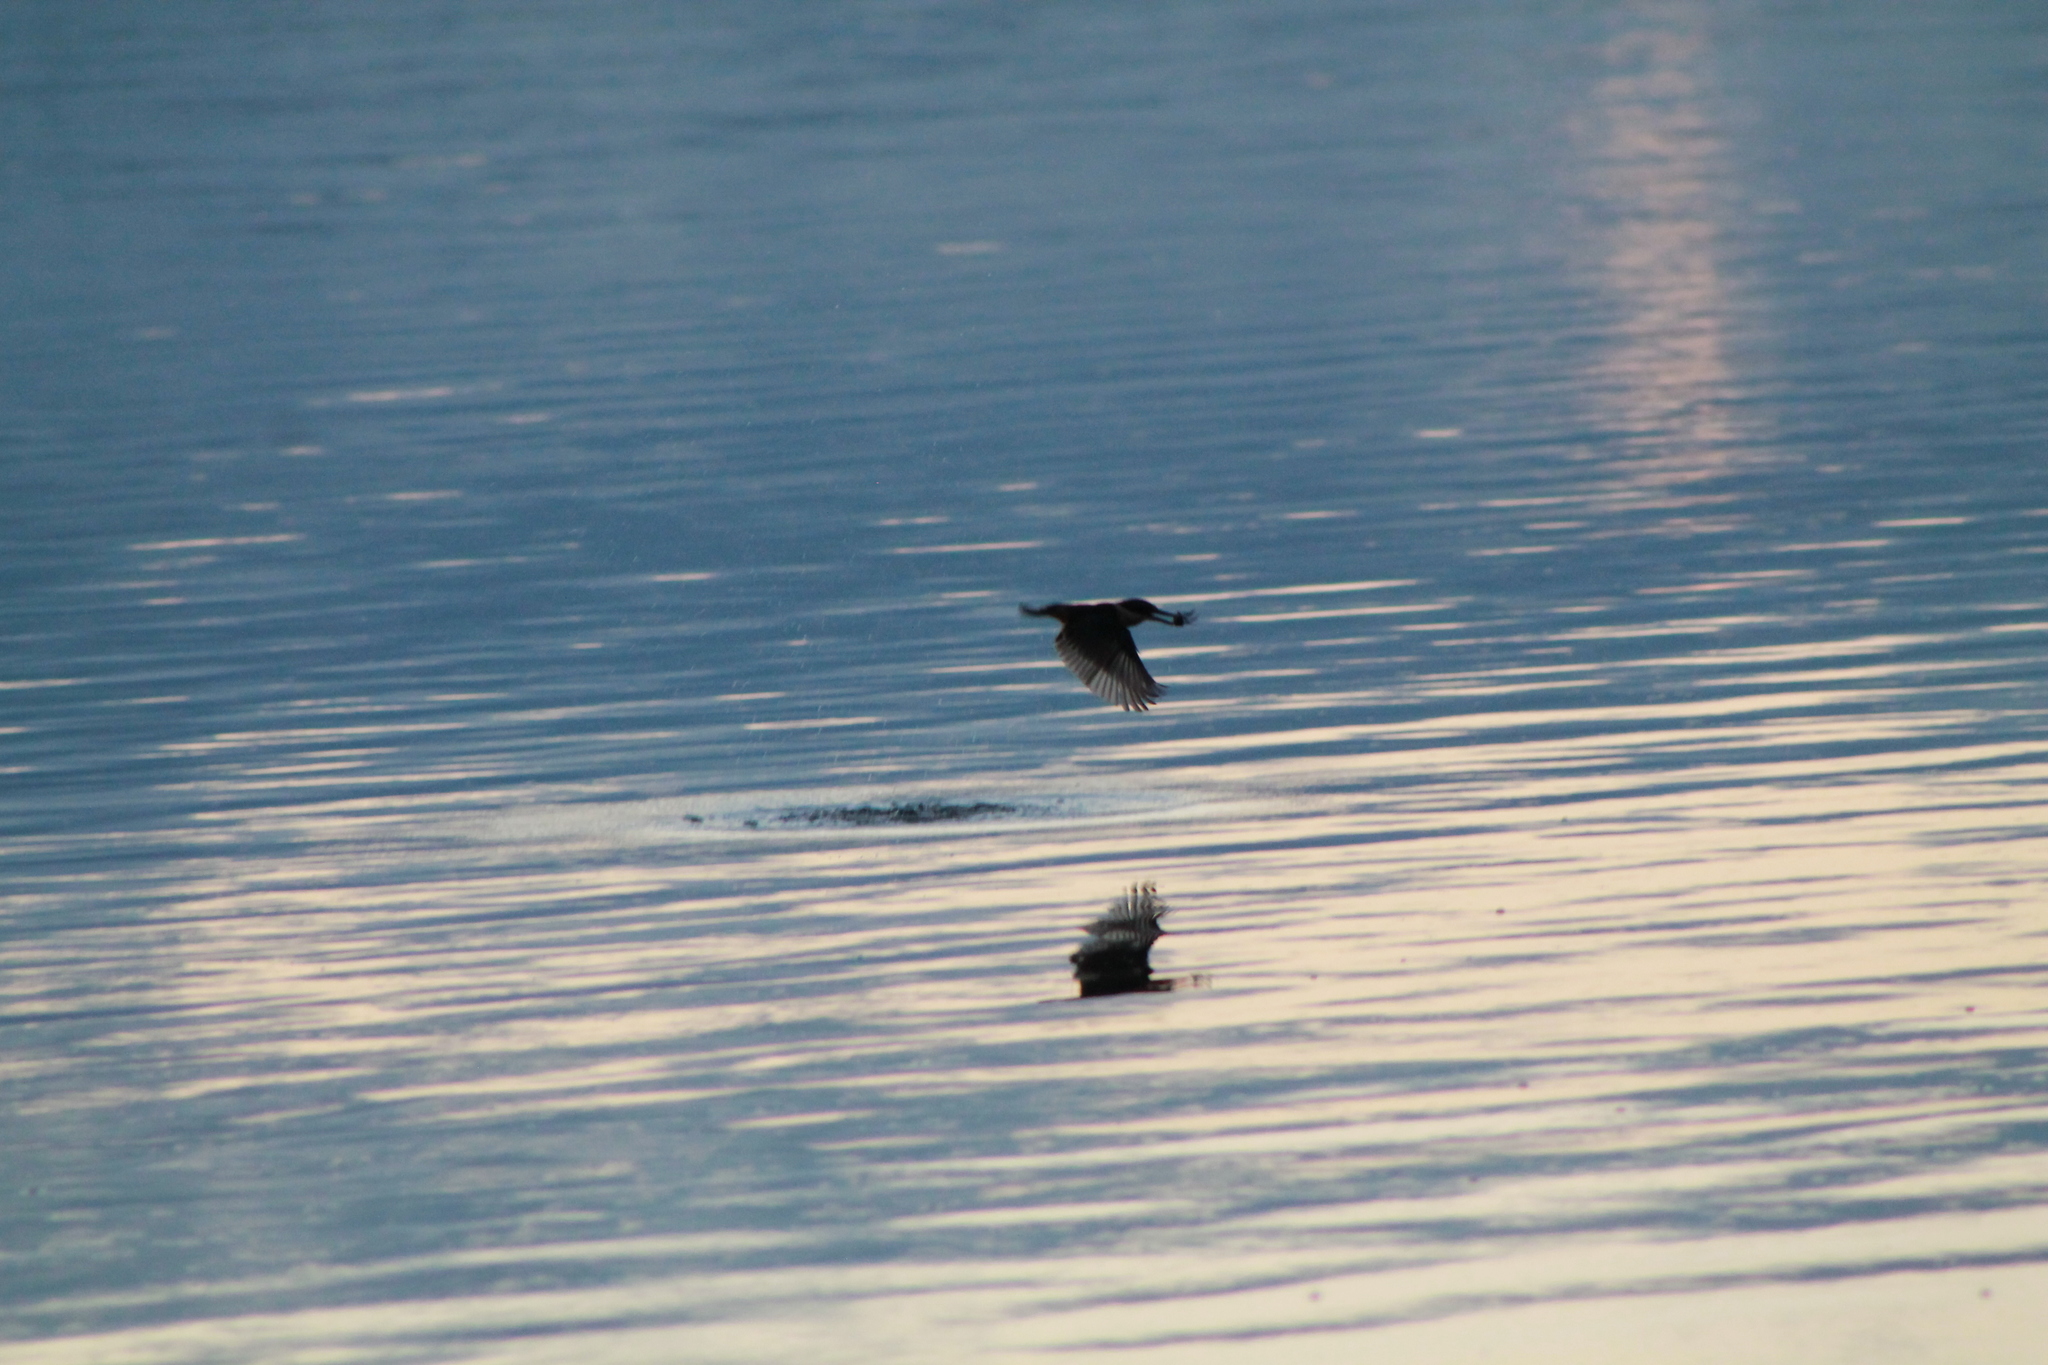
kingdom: Animalia
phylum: Chordata
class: Aves
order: Coraciiformes
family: Alcedinidae
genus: Todiramphus
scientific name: Todiramphus sanctus
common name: Sacred kingfisher
